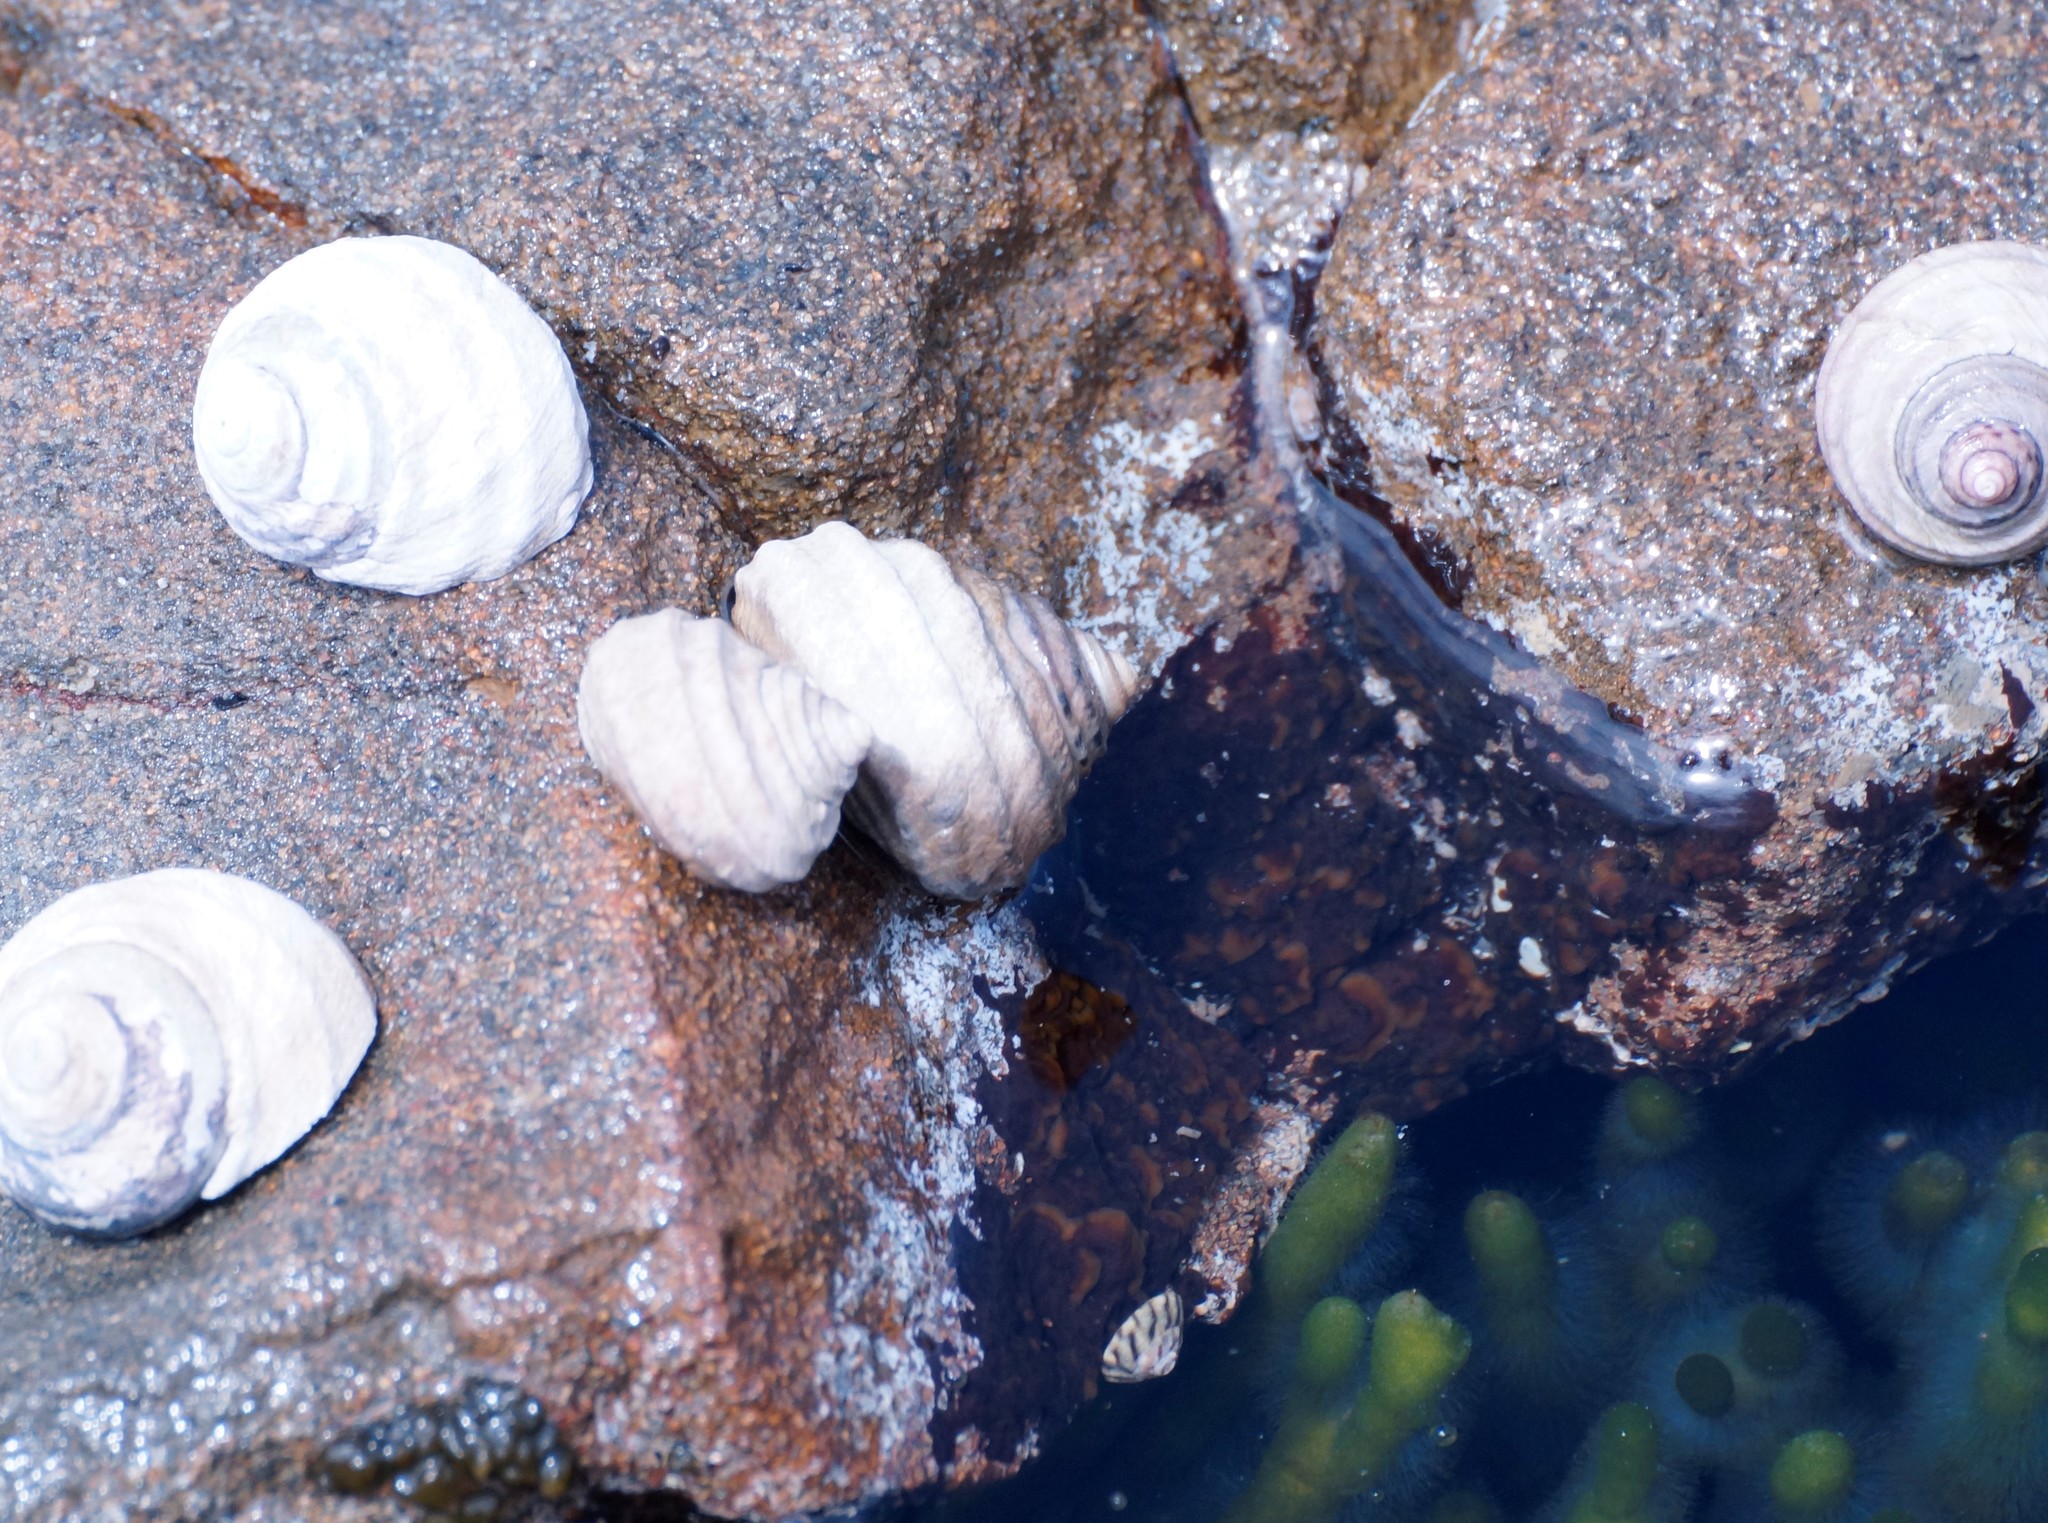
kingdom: Animalia
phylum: Mollusca
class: Gastropoda
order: Trochida
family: Trochidae
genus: Austrocochlea
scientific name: Austrocochlea constricta
